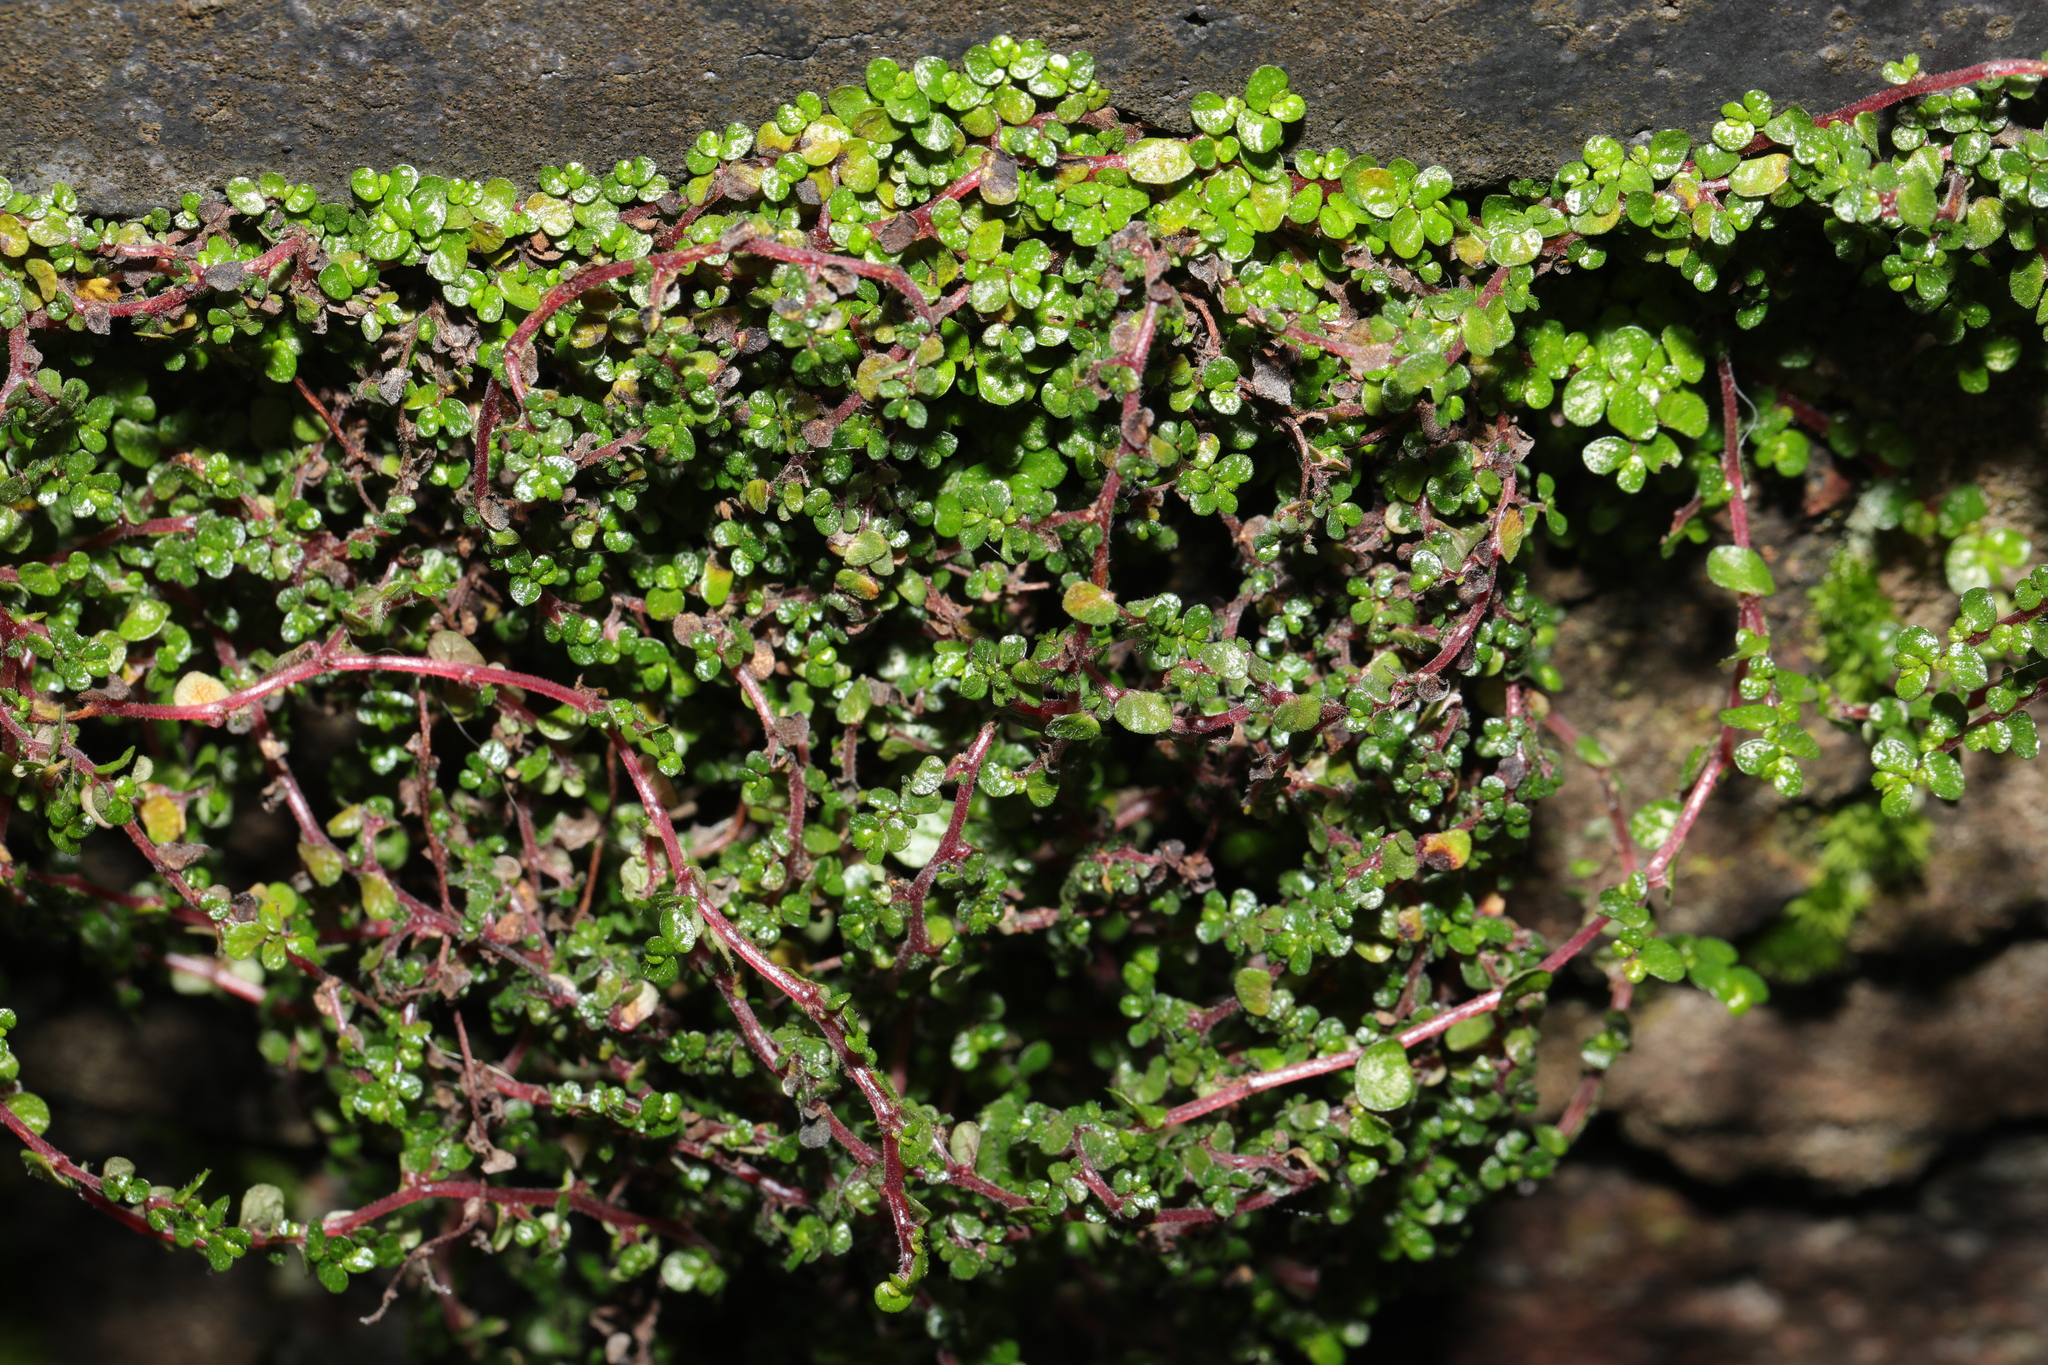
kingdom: Plantae
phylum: Tracheophyta
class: Magnoliopsida
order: Rosales
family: Urticaceae
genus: Soleirolia
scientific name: Soleirolia soleirolii
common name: Mind-your-own-business
